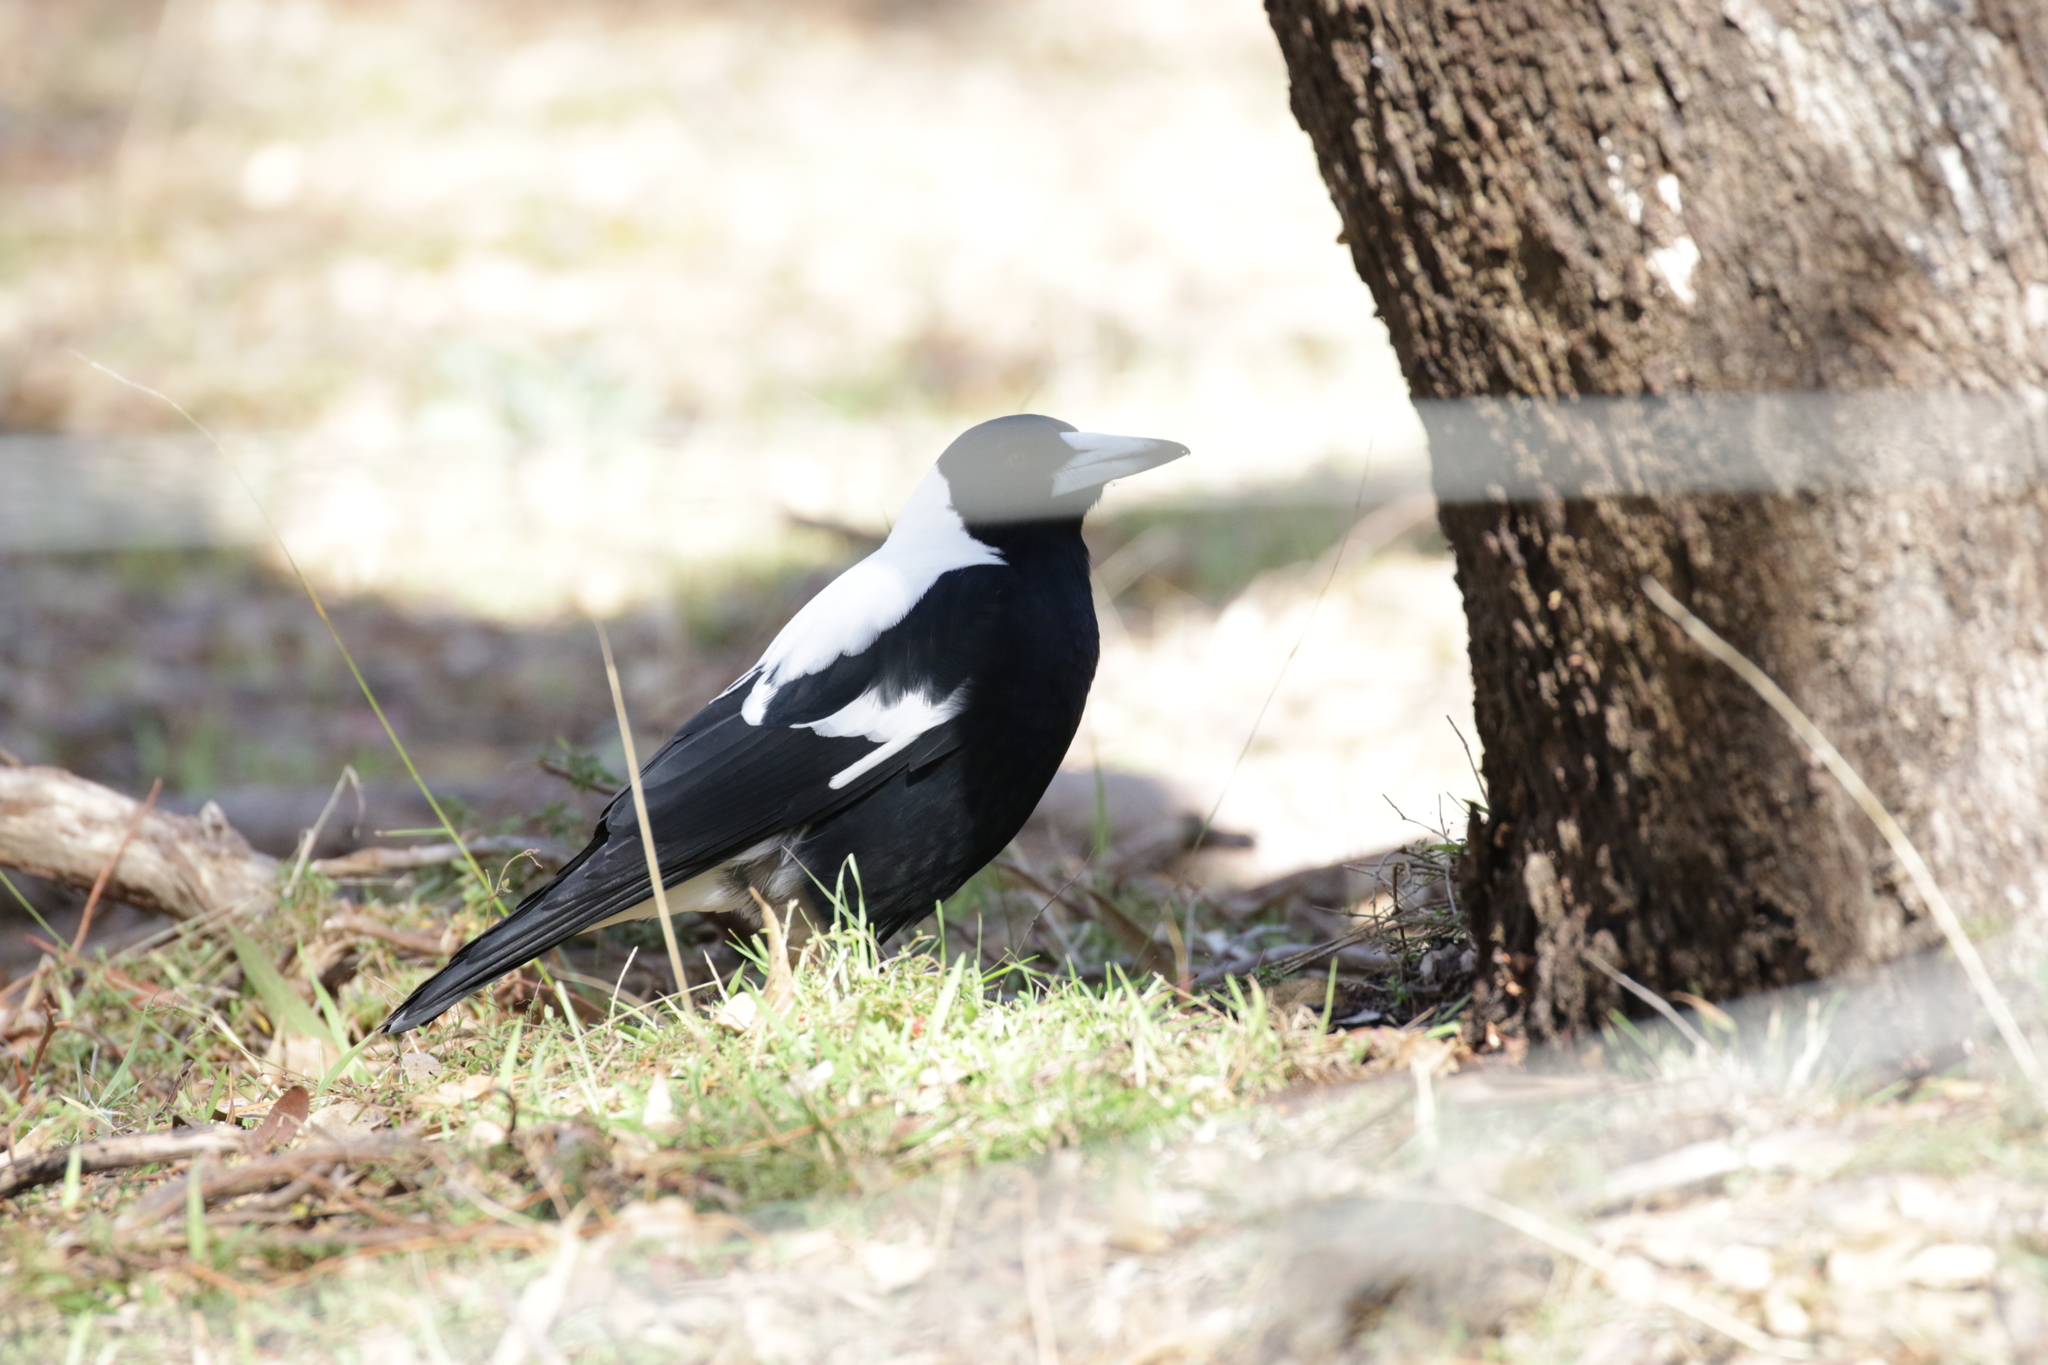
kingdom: Animalia
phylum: Chordata
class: Aves
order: Passeriformes
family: Cracticidae
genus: Gymnorhina
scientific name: Gymnorhina tibicen
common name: Australian magpie
